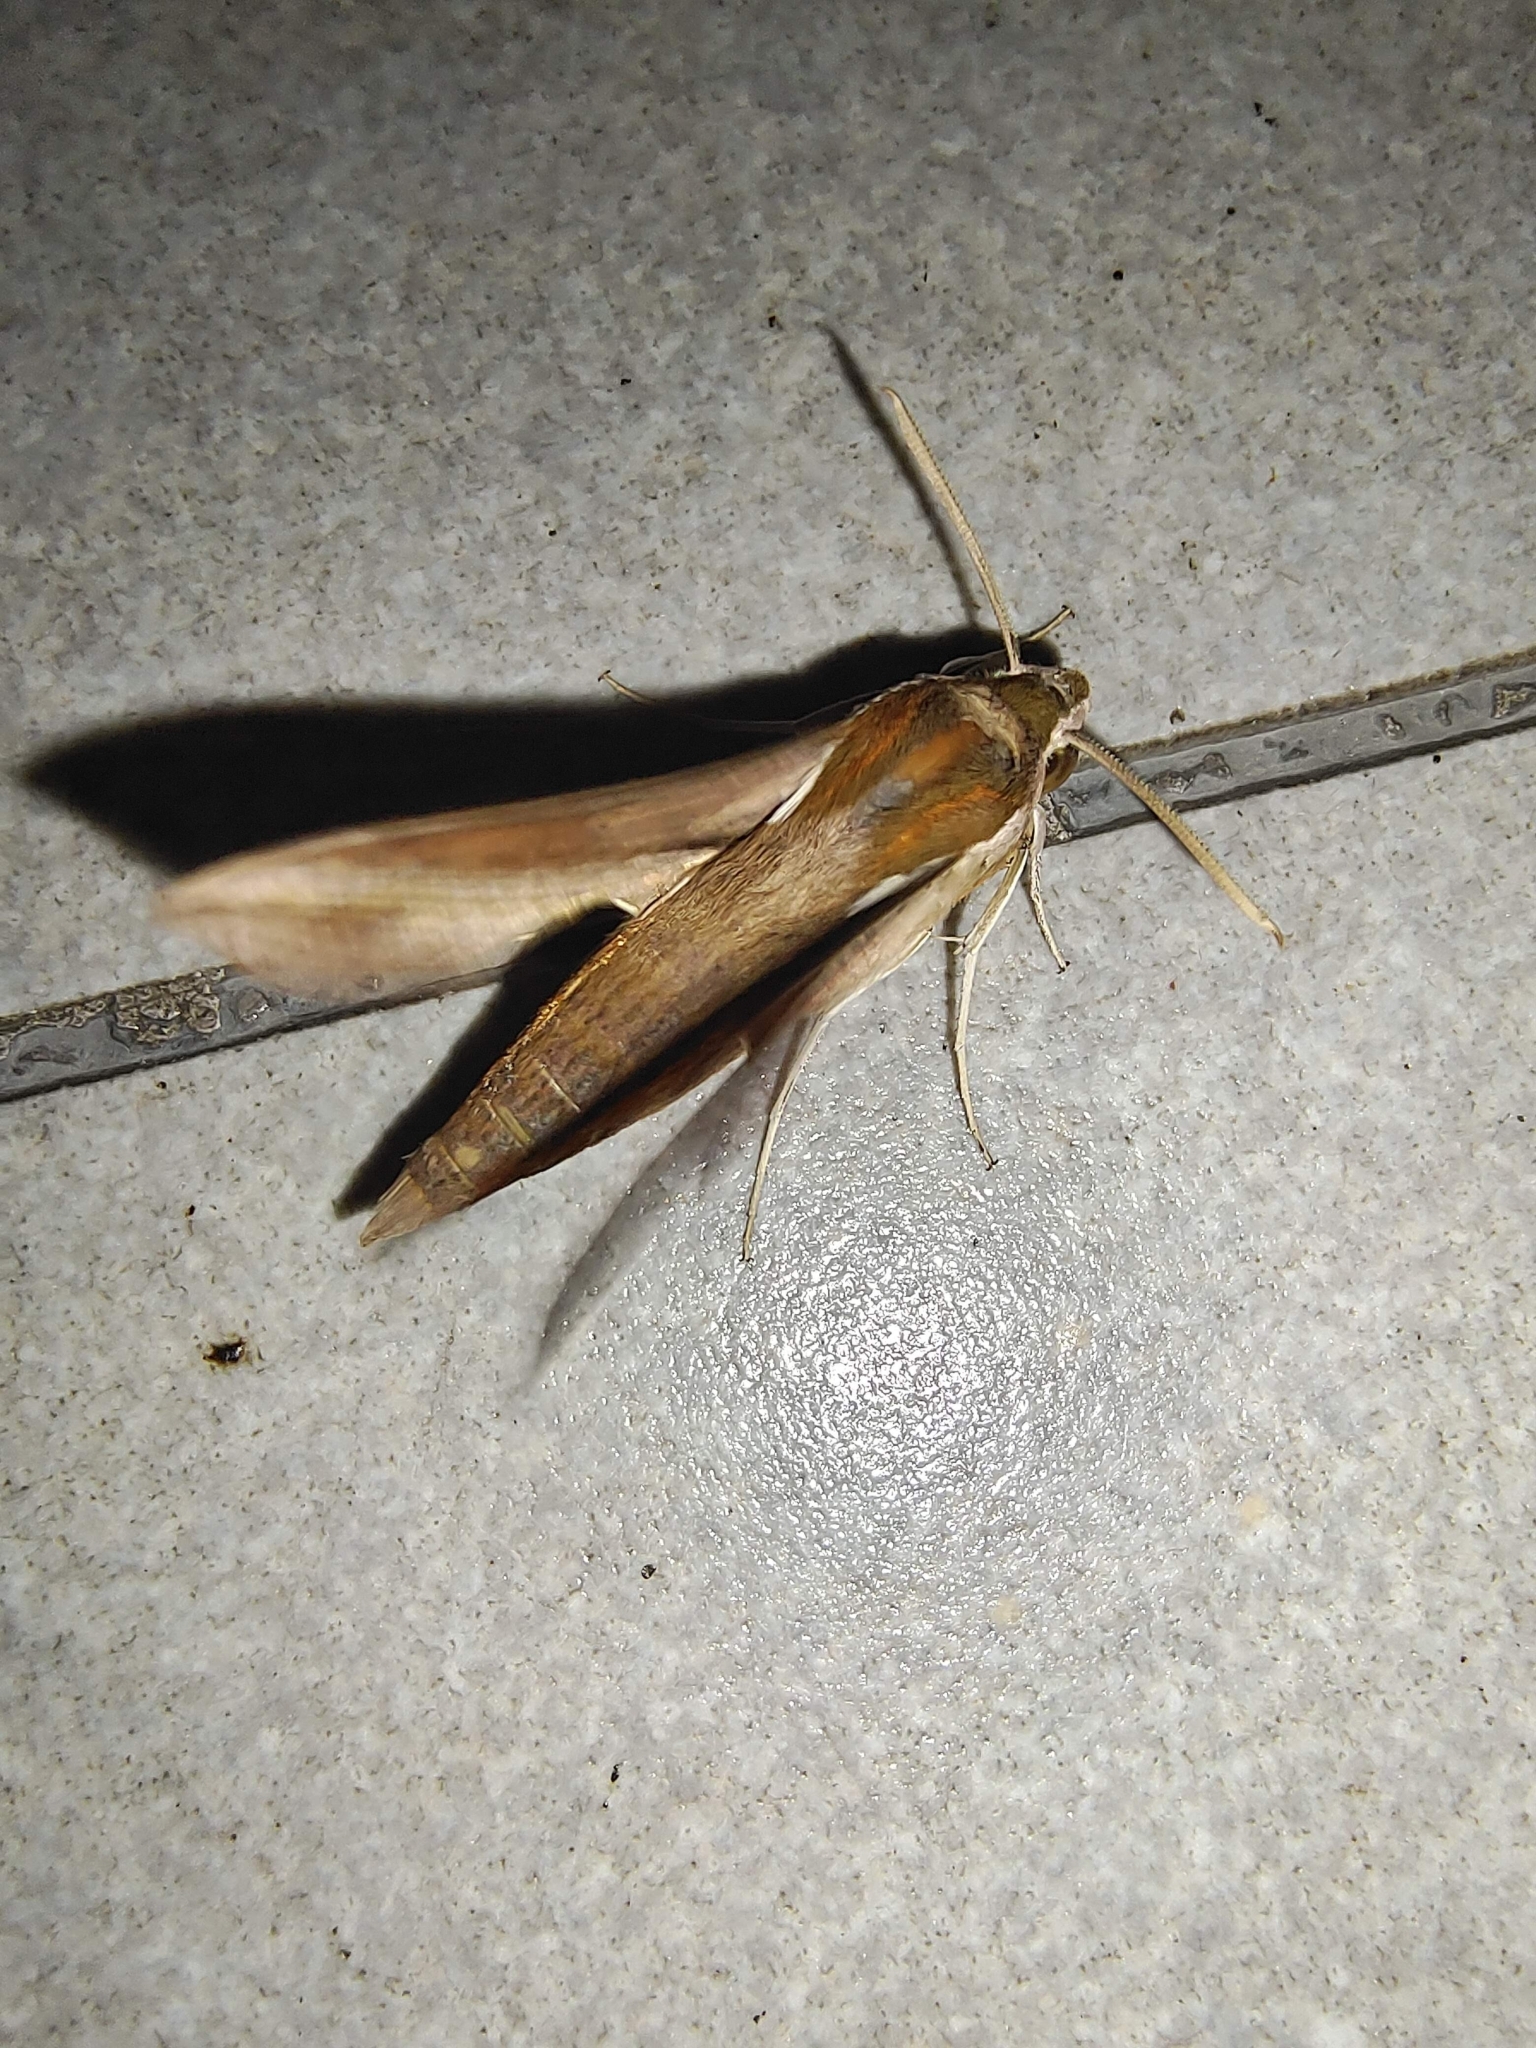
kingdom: Animalia
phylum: Arthropoda
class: Insecta
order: Lepidoptera
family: Sphingidae
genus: Hippotion
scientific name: Hippotion rosetta
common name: Vine hawk moth
